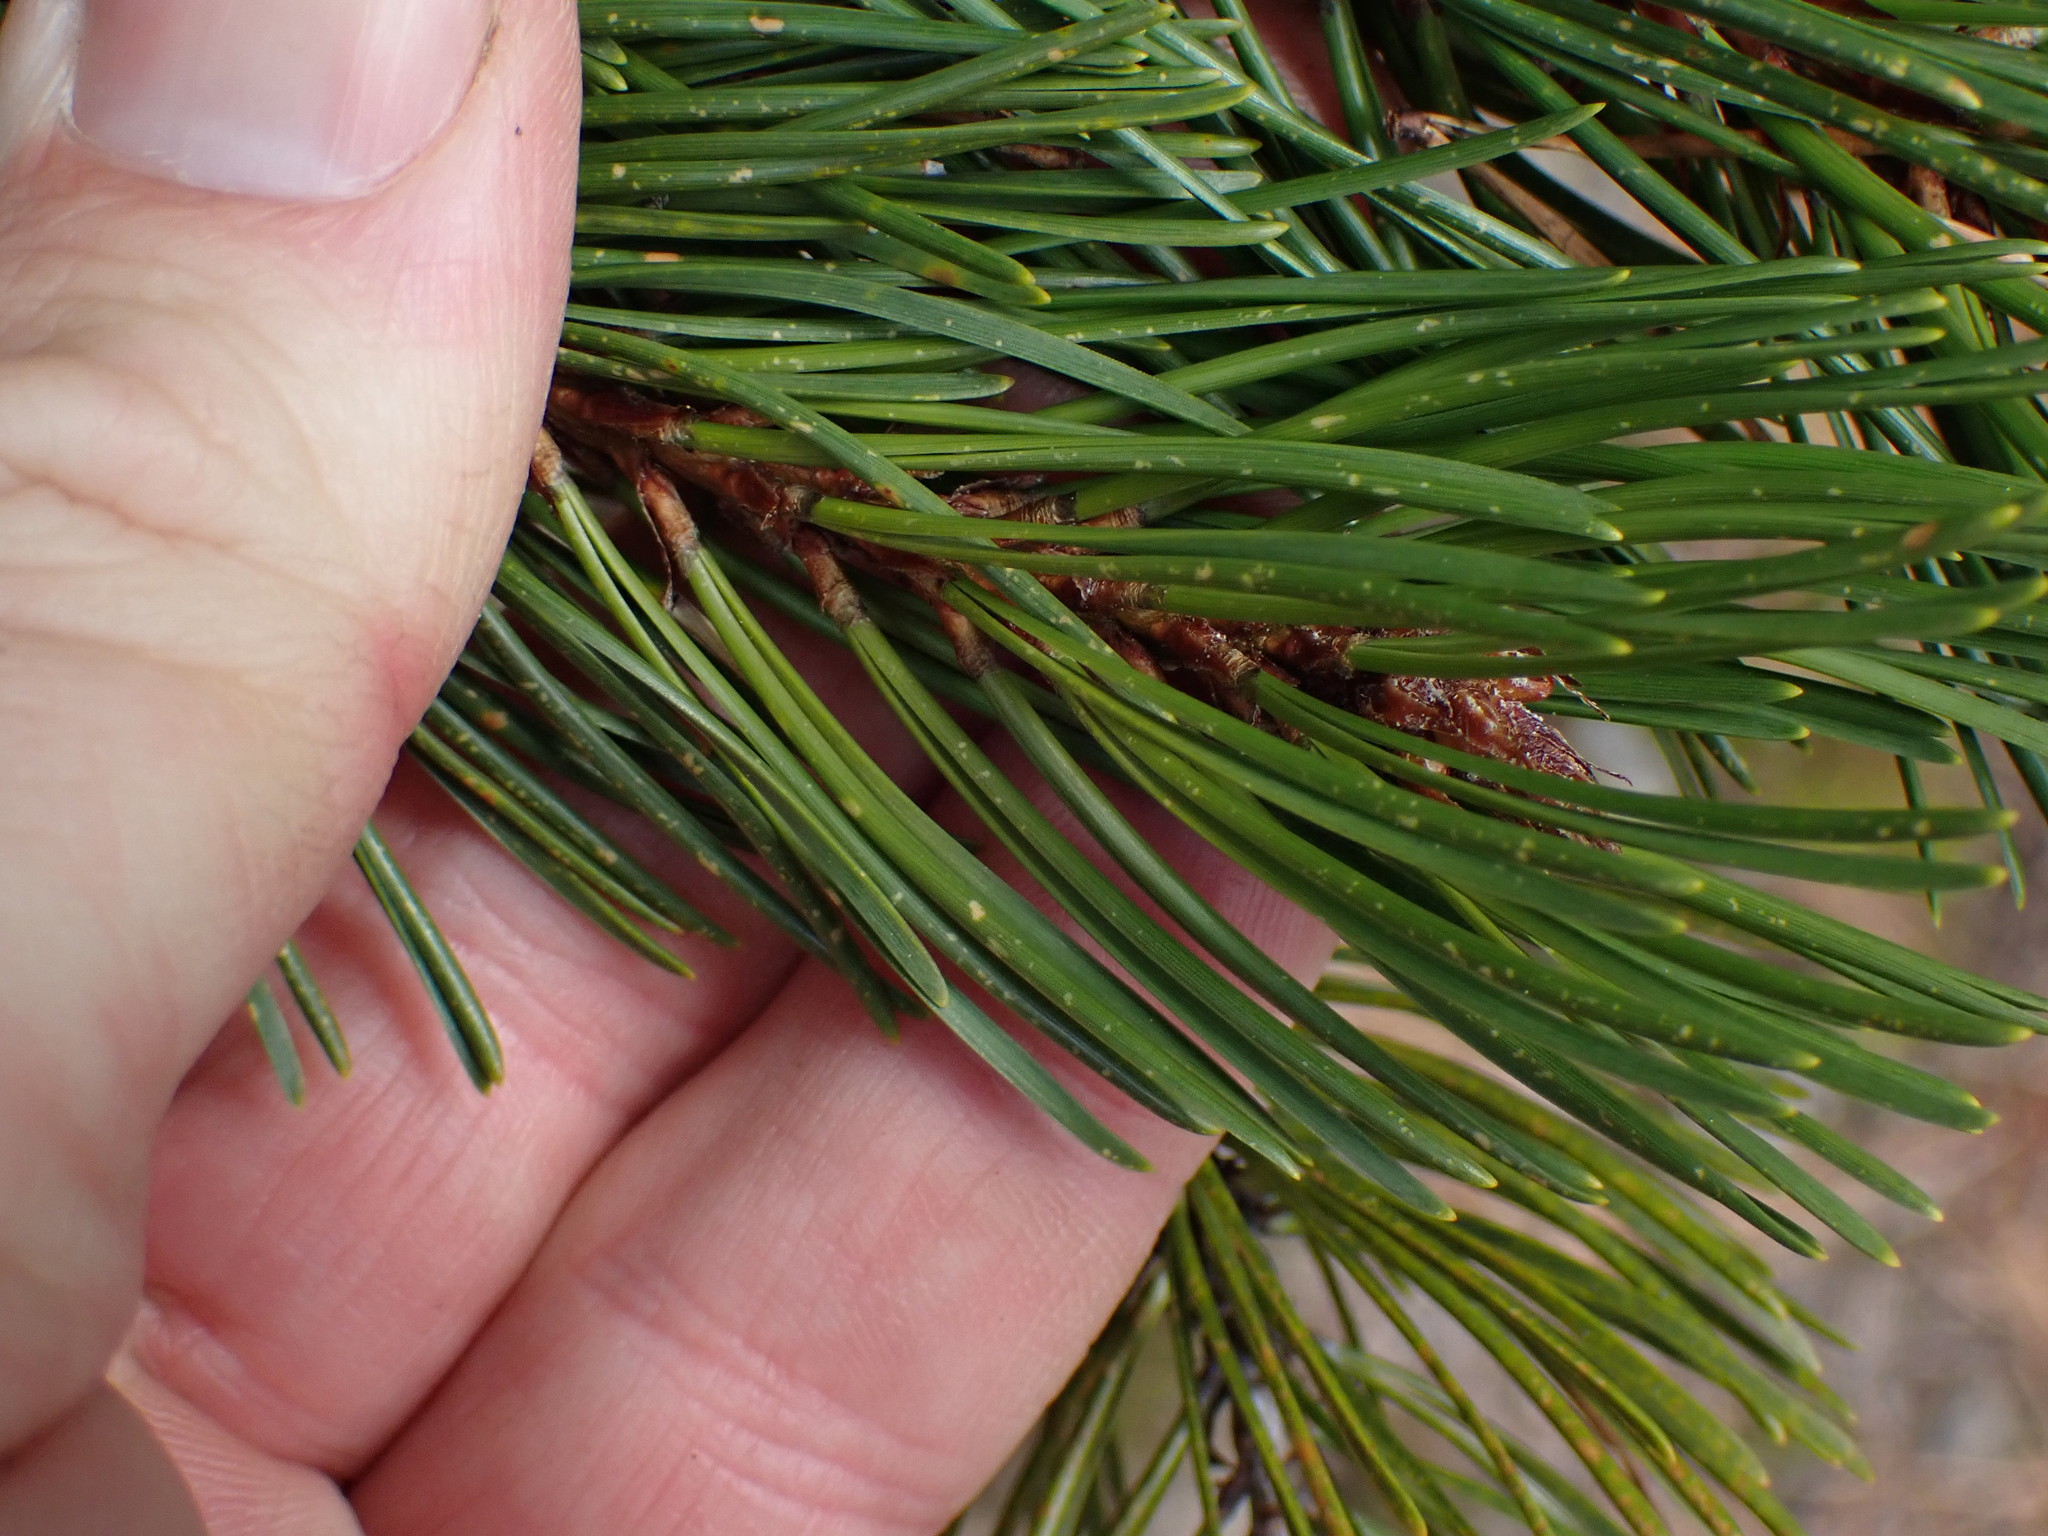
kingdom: Plantae
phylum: Tracheophyta
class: Pinopsida
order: Pinales
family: Pinaceae
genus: Pinus
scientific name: Pinus contorta
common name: Lodgepole pine
